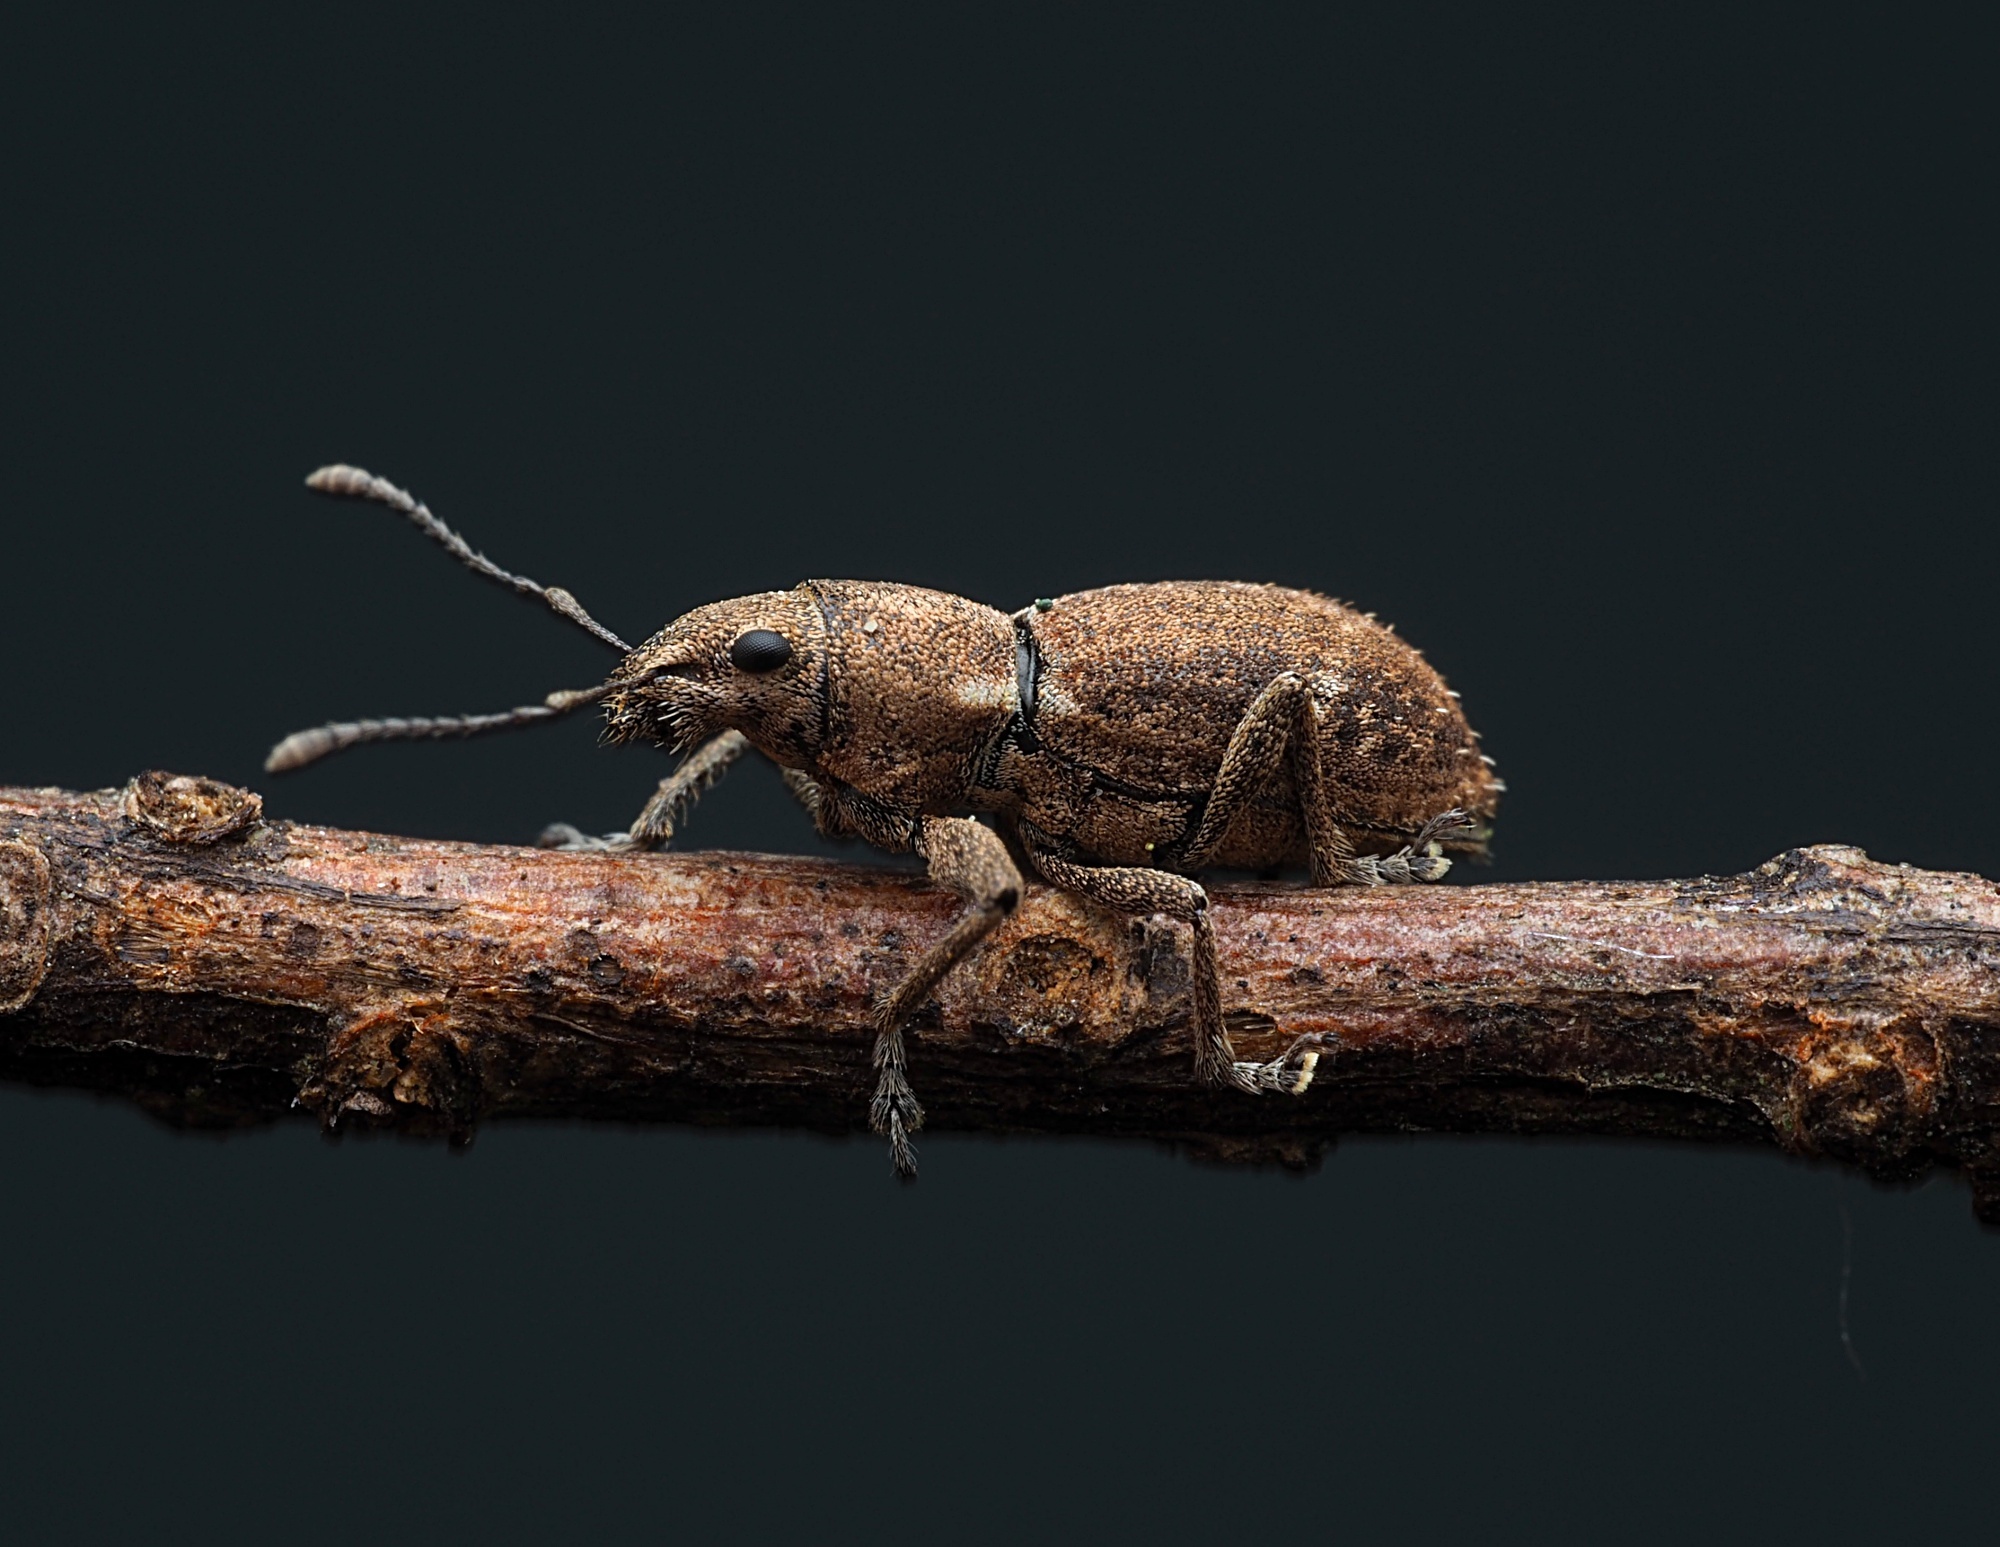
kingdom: Animalia
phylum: Arthropoda
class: Insecta
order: Coleoptera
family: Curculionidae
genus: Naupactus
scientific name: Naupactus cervinus
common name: Fuller rose beetle
